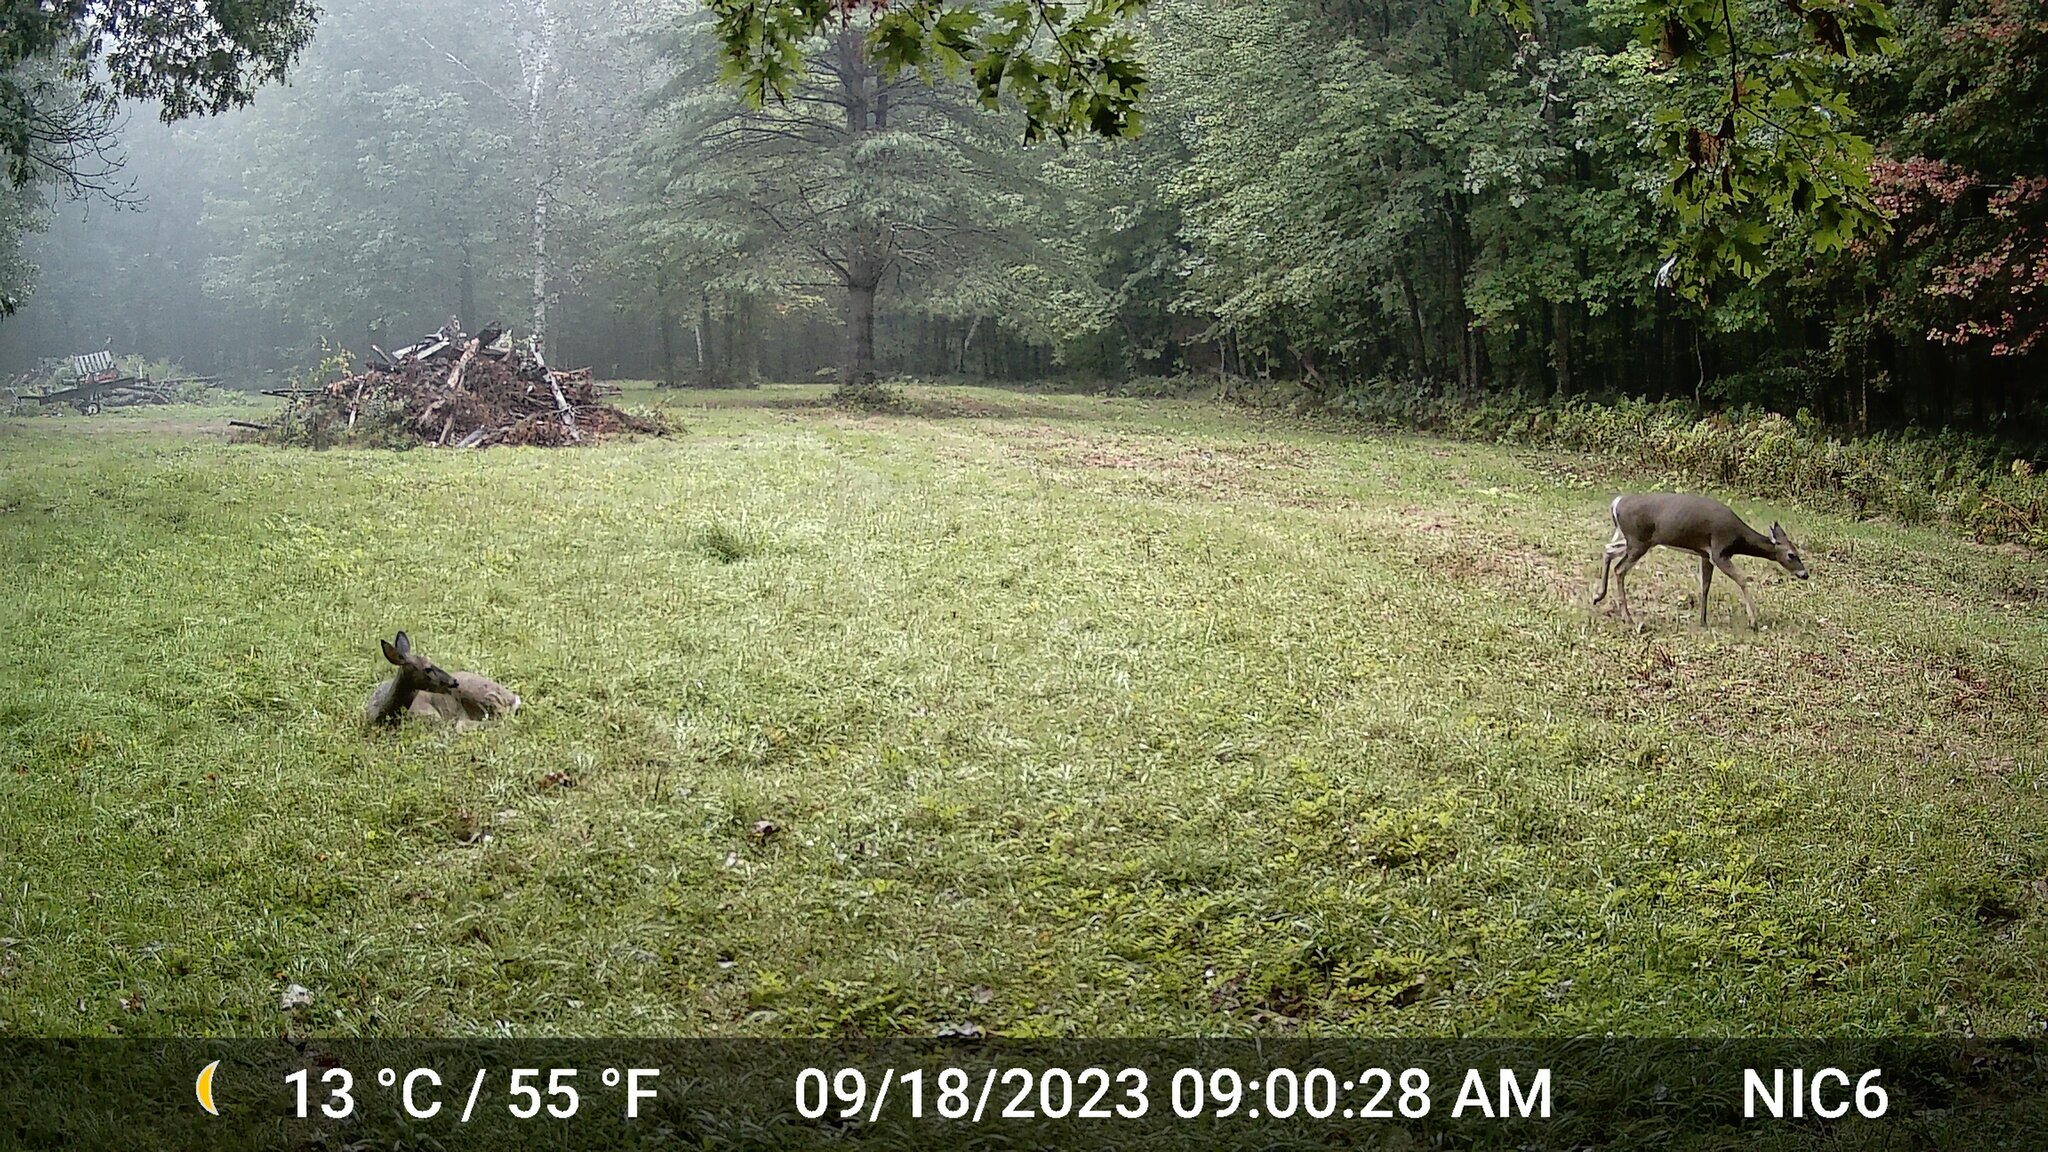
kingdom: Animalia
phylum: Chordata
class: Mammalia
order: Artiodactyla
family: Cervidae
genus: Odocoileus
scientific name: Odocoileus virginianus
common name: White-tailed deer
